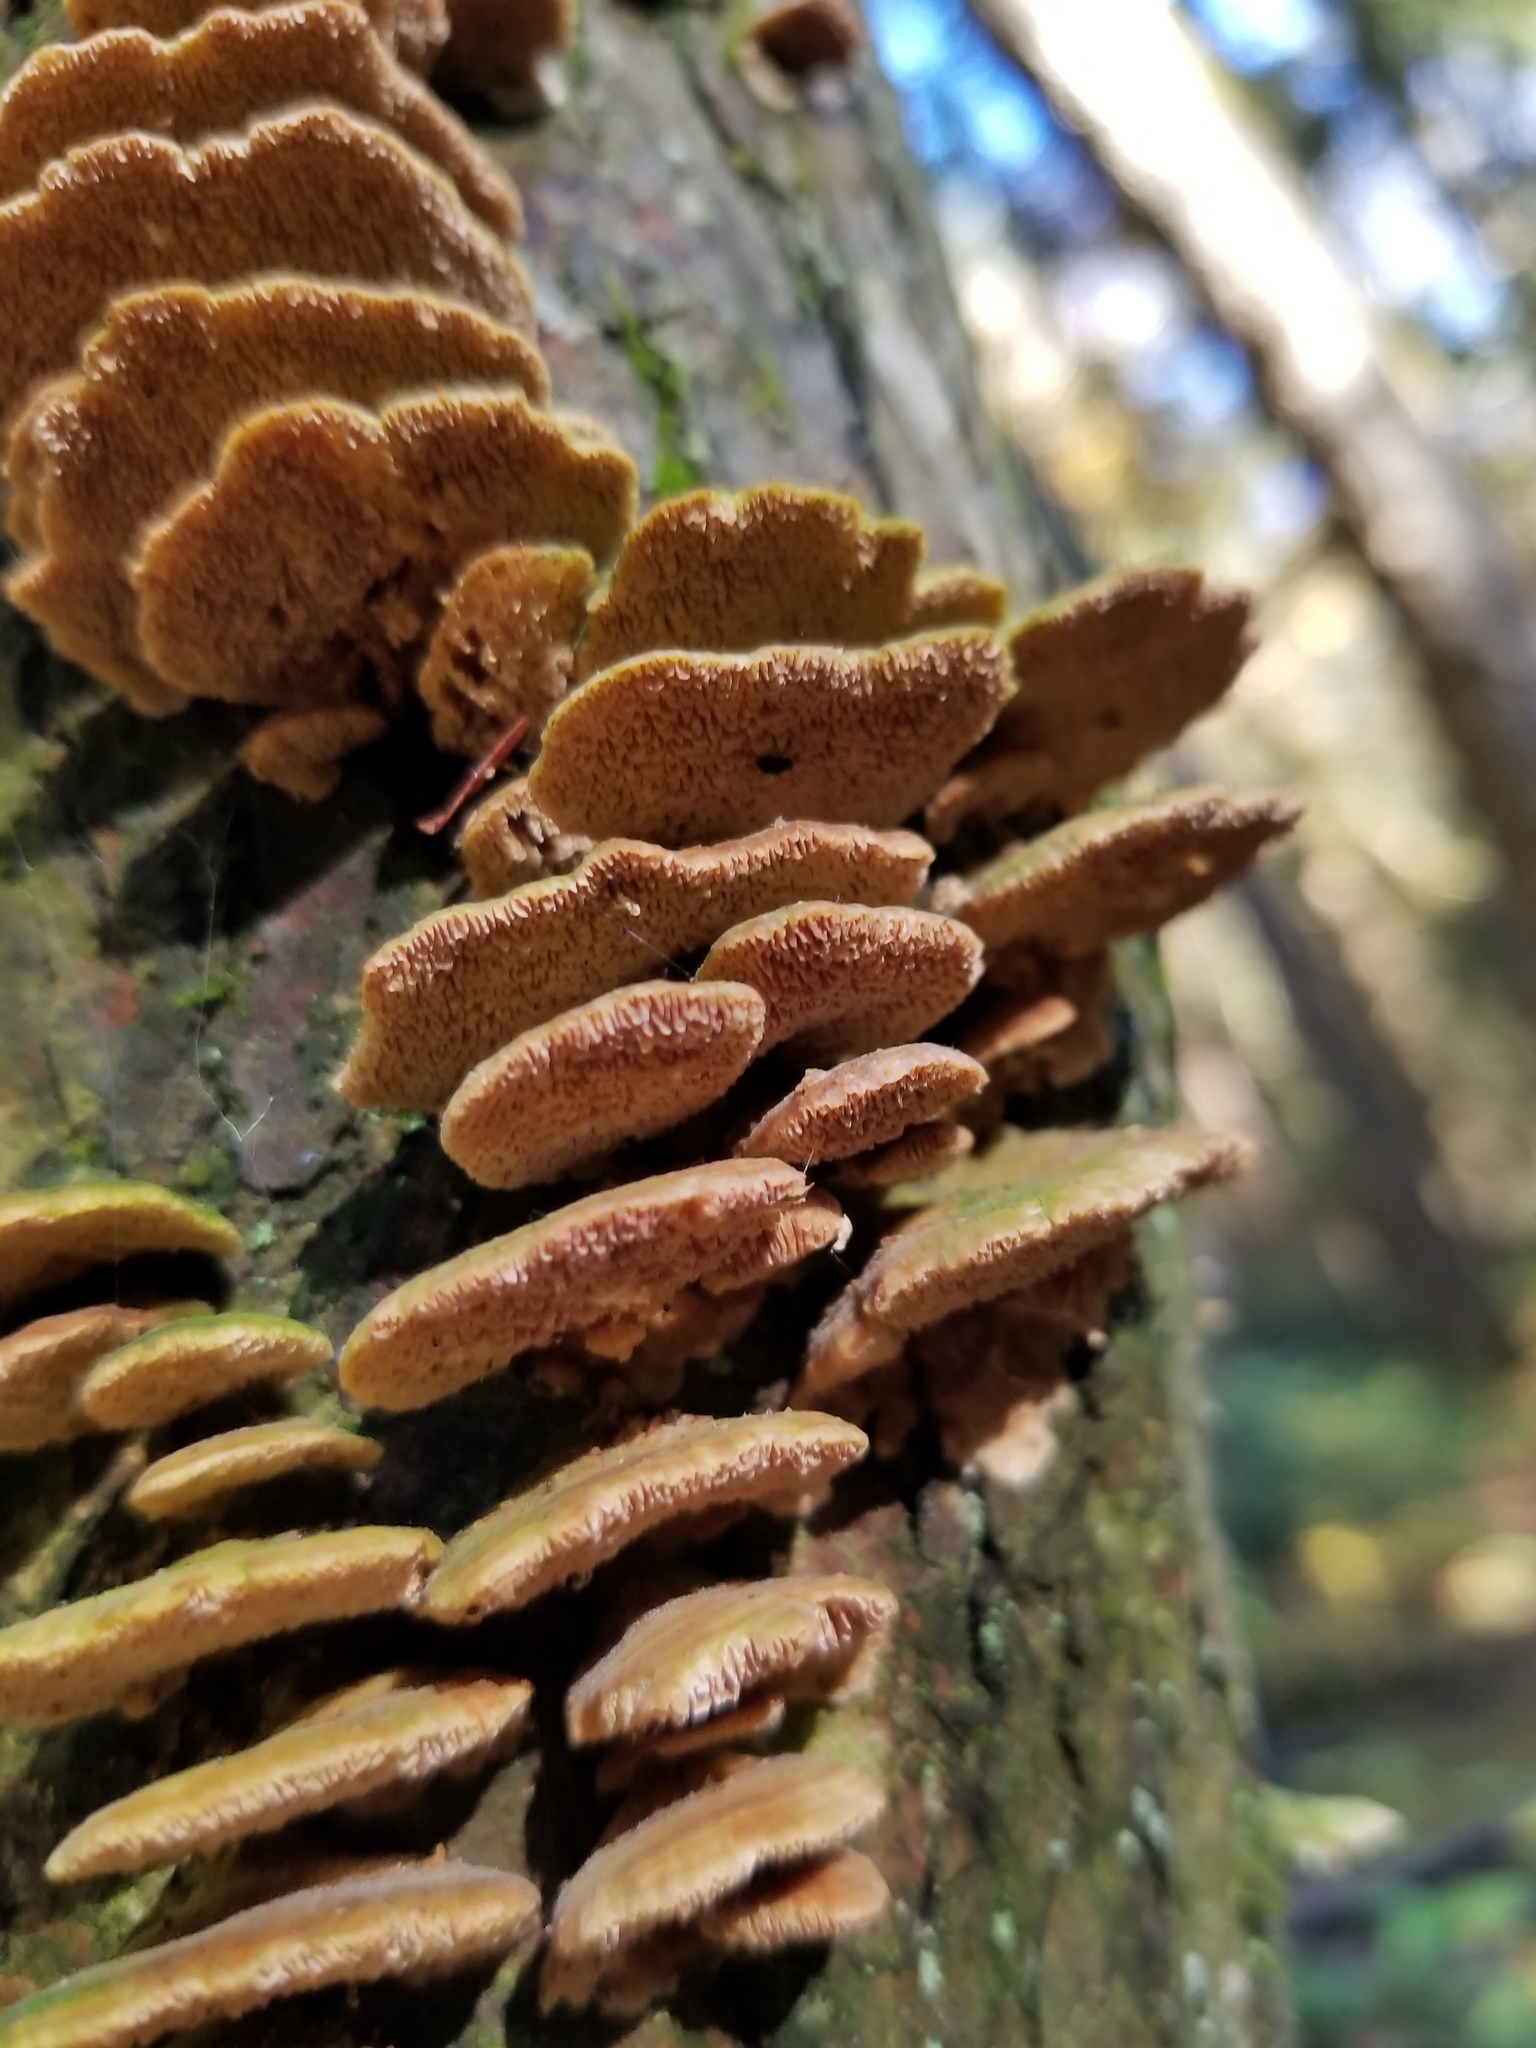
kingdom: Fungi
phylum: Basidiomycota
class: Agaricomycetes
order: Hymenochaetales
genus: Trichaptum
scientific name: Trichaptum biforme
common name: Violet-toothed polypore
